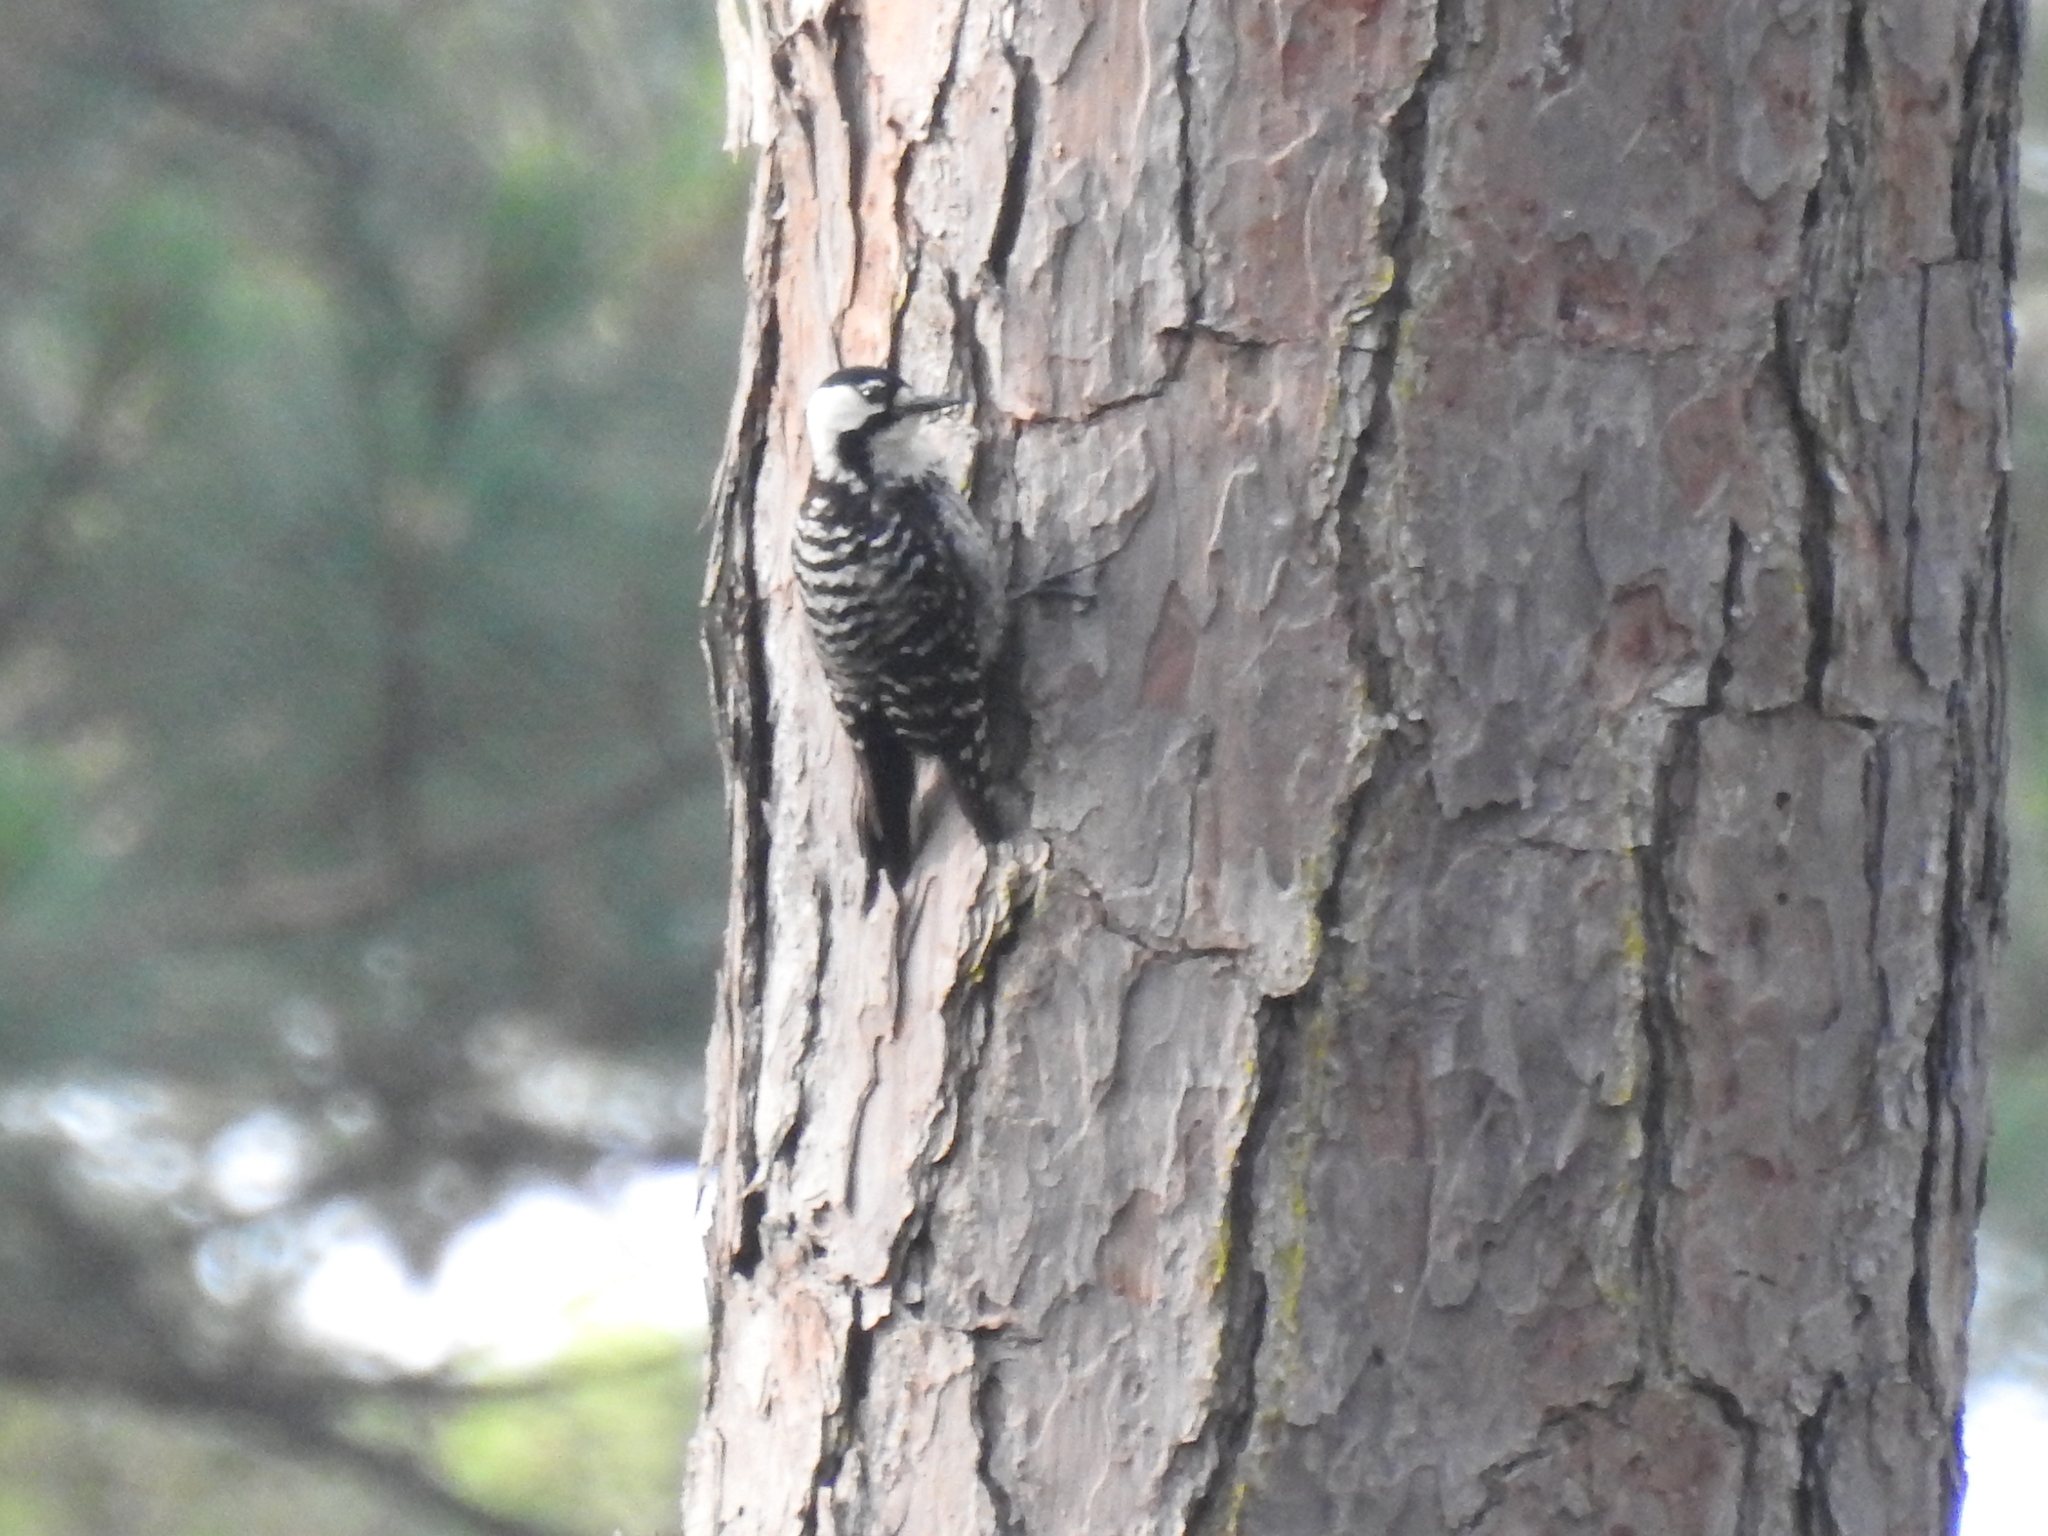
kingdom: Animalia
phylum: Chordata
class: Aves
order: Piciformes
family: Picidae
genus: Leuconotopicus
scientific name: Leuconotopicus borealis
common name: Red-cockaded woodpecker
